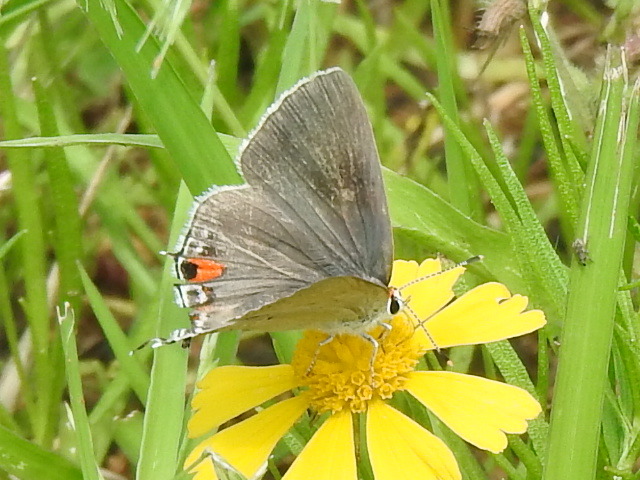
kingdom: Animalia
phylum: Arthropoda
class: Insecta
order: Lepidoptera
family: Lycaenidae
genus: Strymon
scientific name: Strymon melinus
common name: Gray hairstreak
